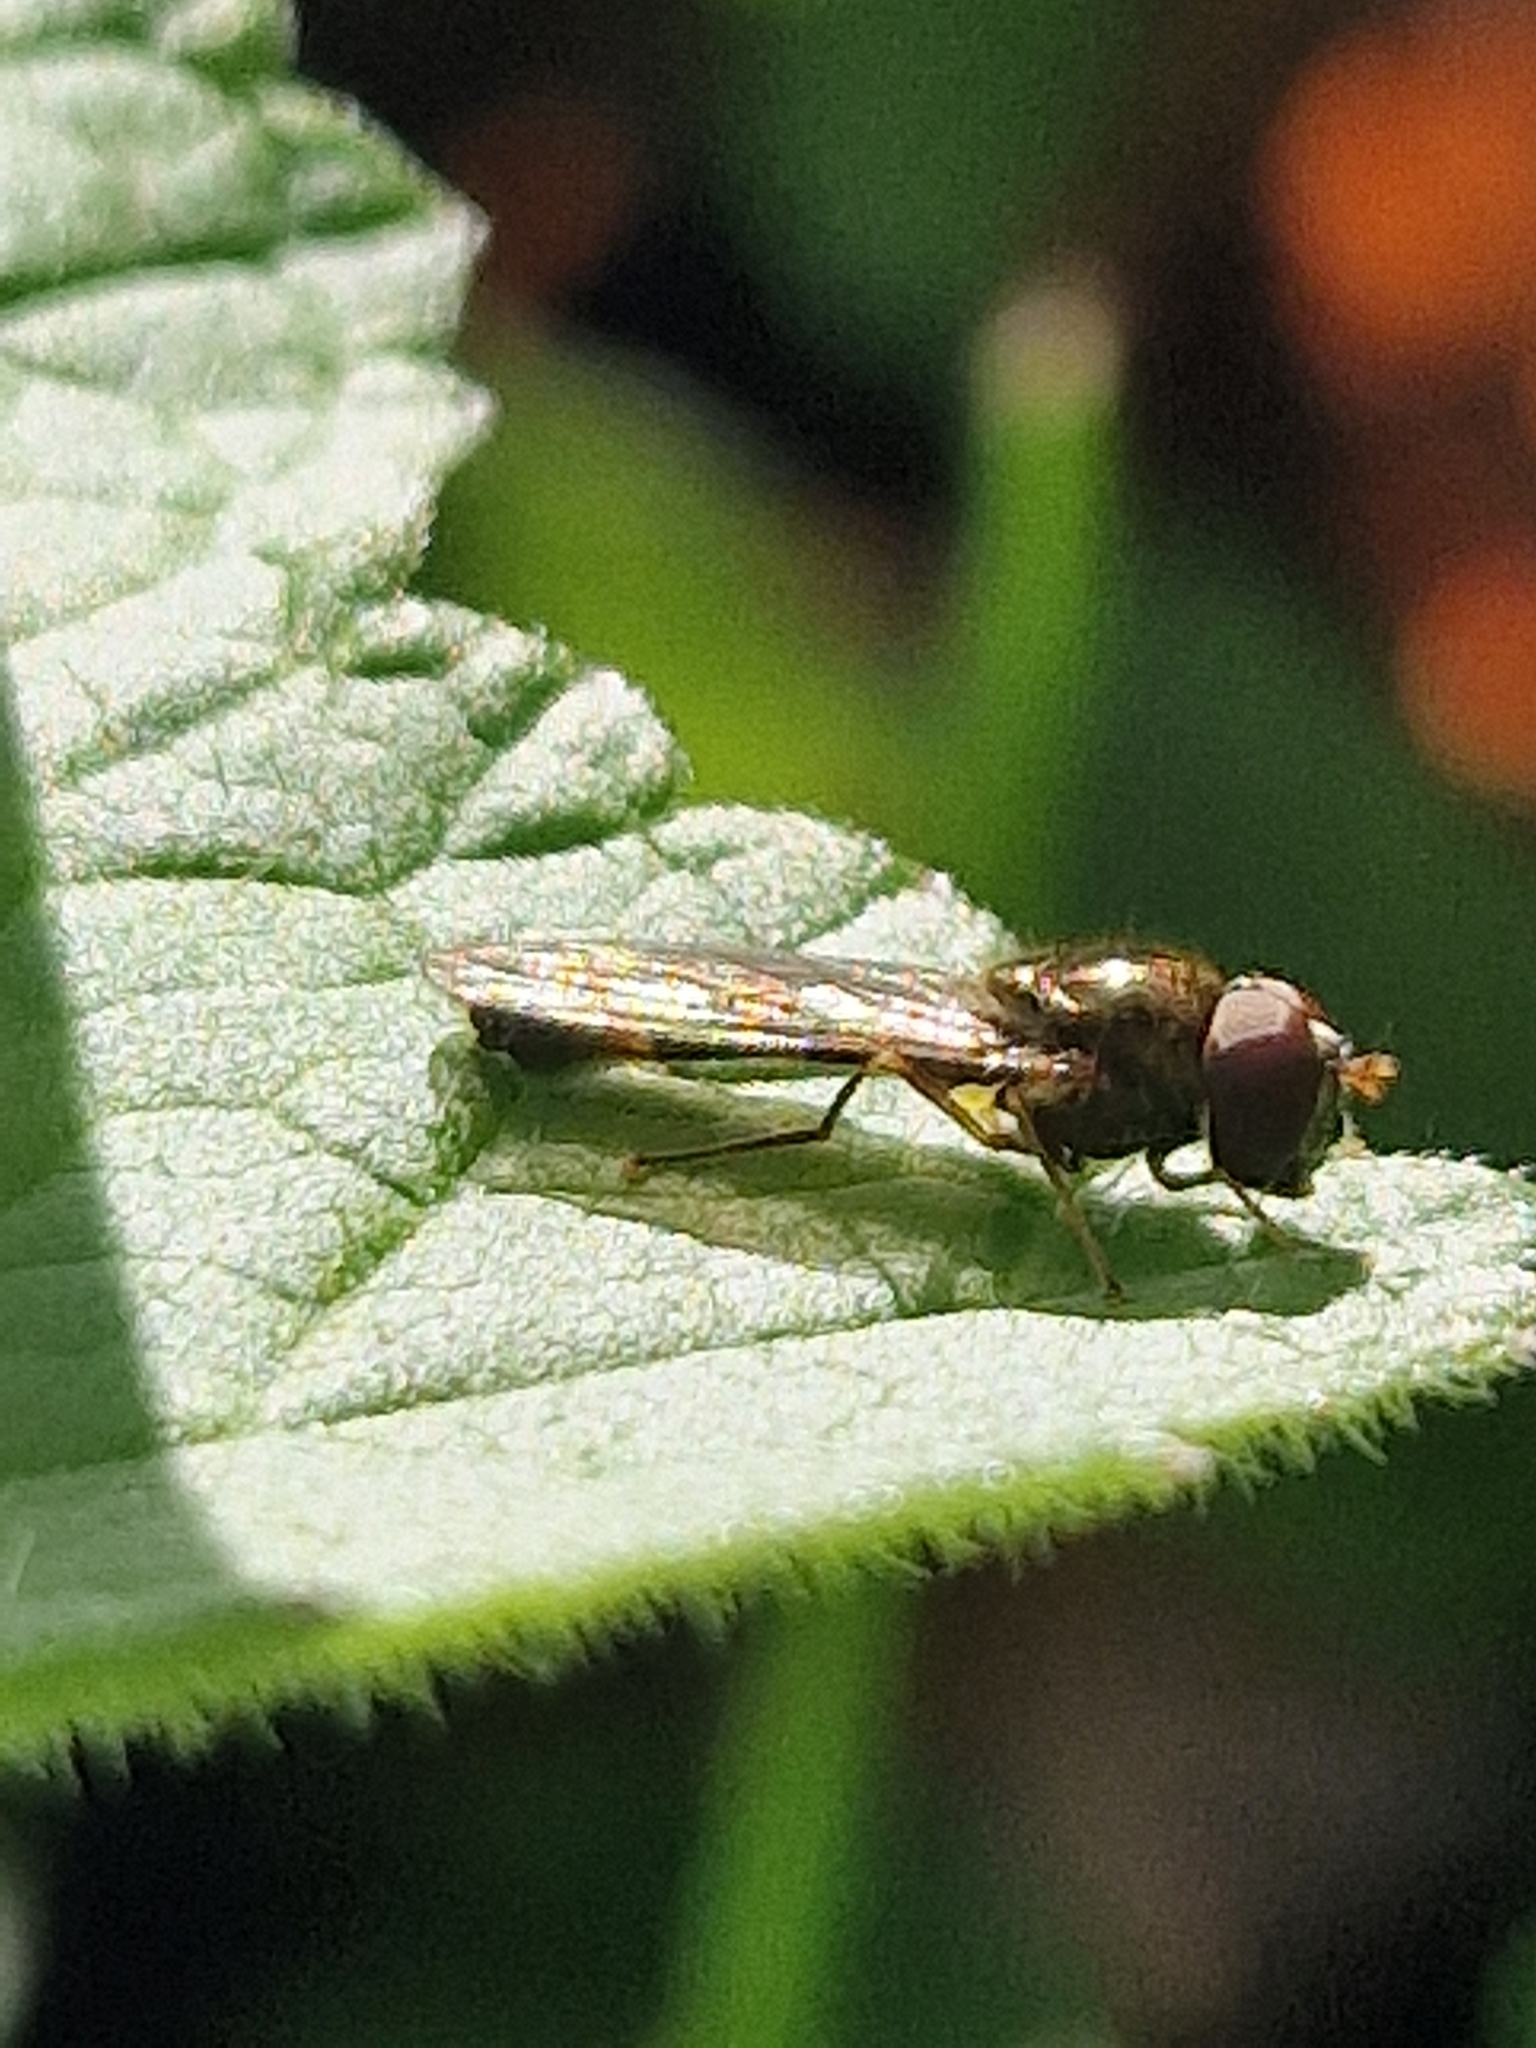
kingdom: Animalia
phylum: Arthropoda
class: Insecta
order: Diptera
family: Syrphidae
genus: Melanostoma
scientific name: Melanostoma scalare
